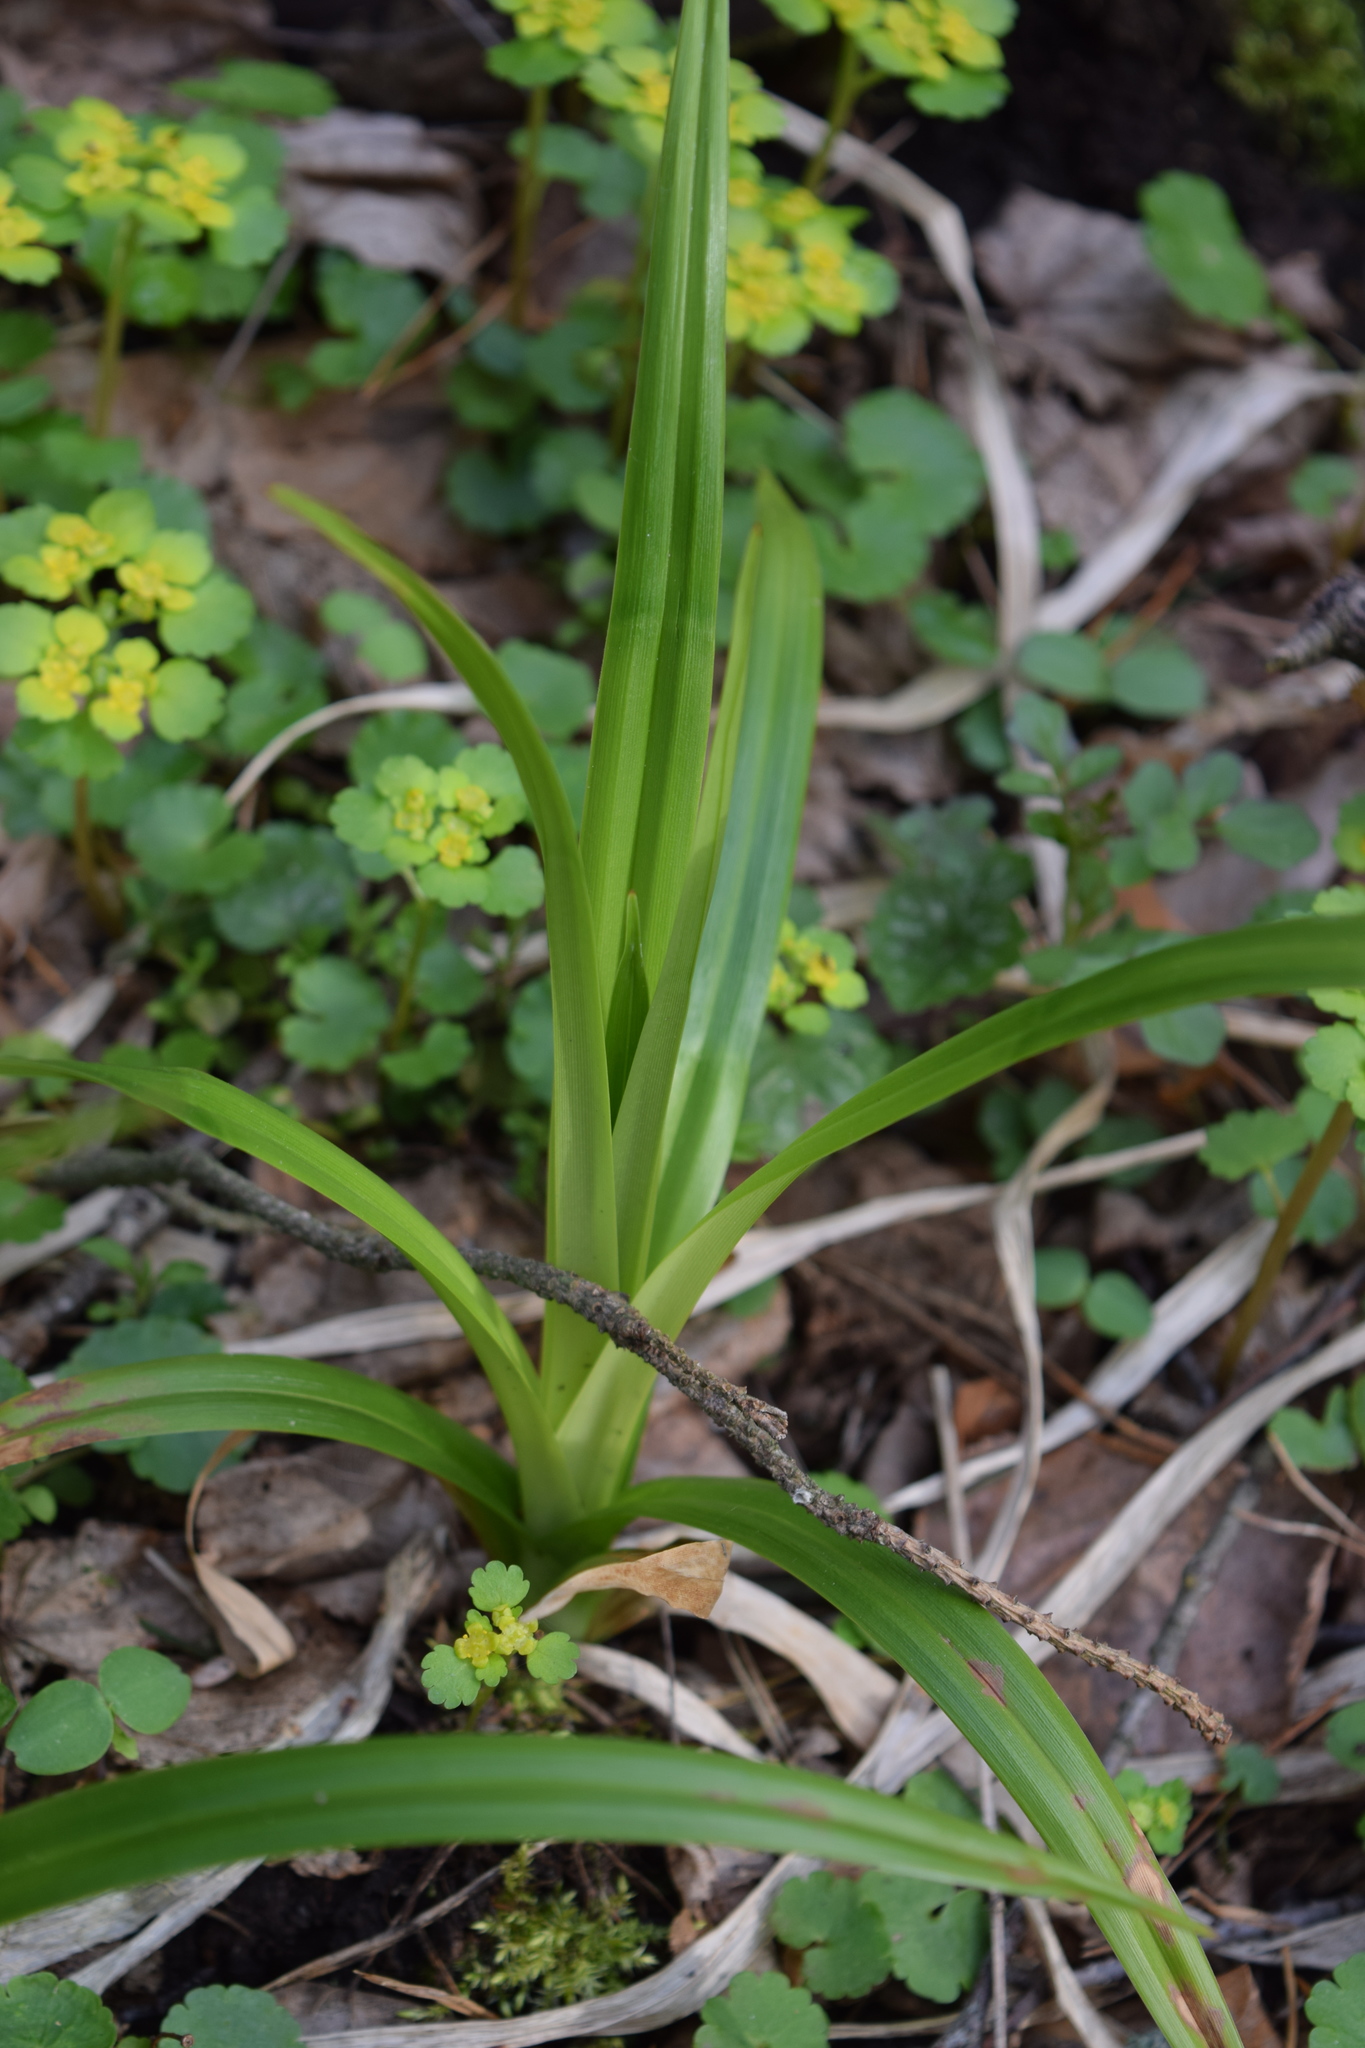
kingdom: Plantae
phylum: Tracheophyta
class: Liliopsida
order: Poales
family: Cyperaceae
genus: Scirpus
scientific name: Scirpus sylvaticus
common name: Wood club-rush
